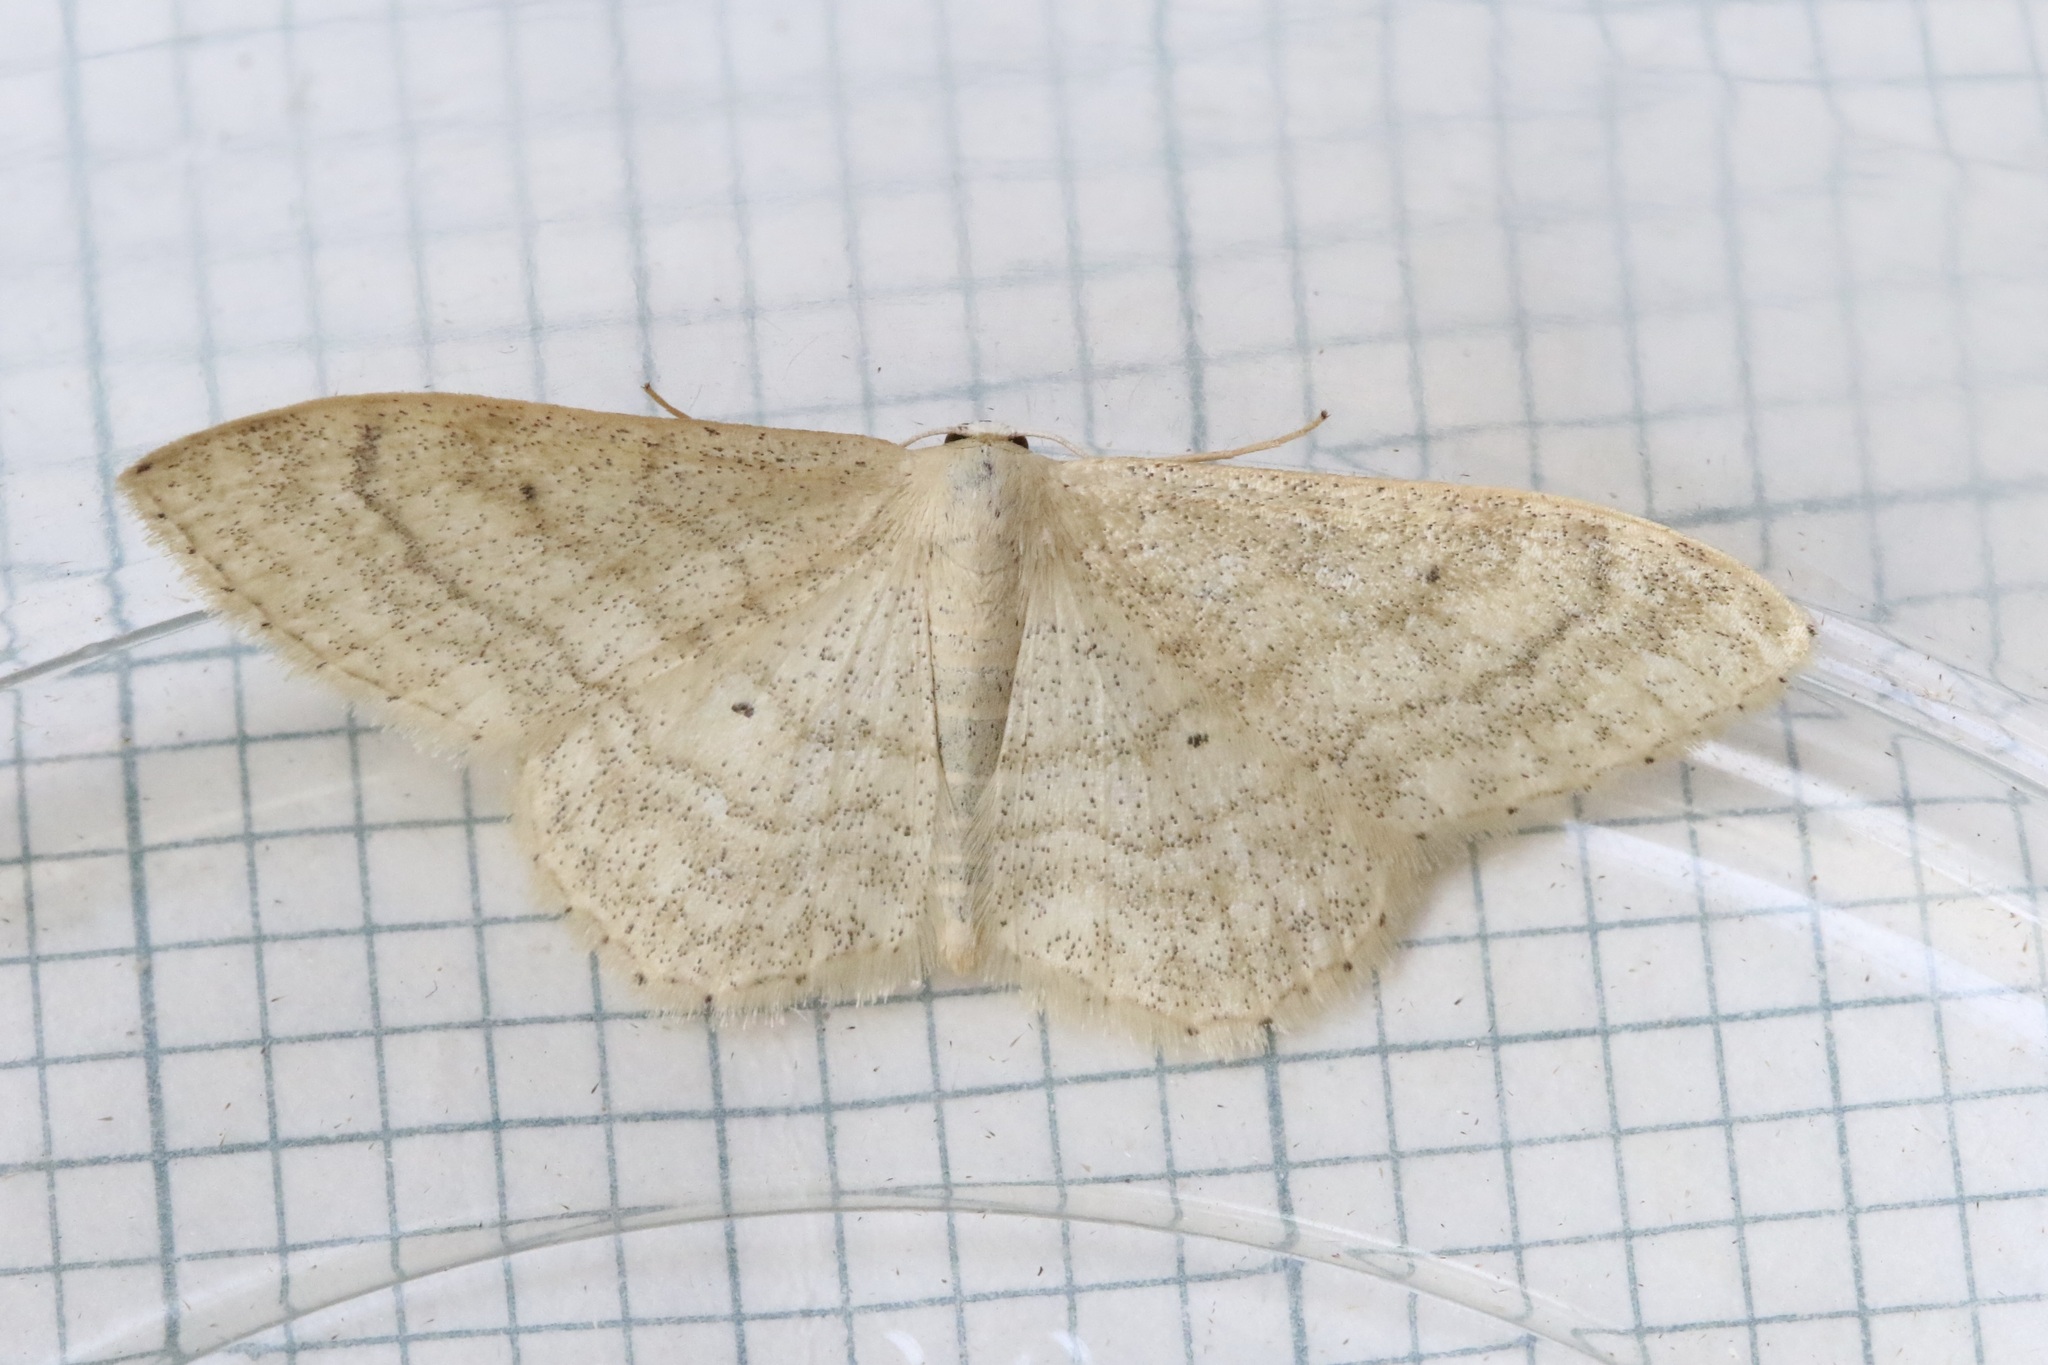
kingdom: Animalia
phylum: Arthropoda
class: Insecta
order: Lepidoptera
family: Geometridae
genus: Idaea
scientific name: Idaea straminata
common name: Plain wave
